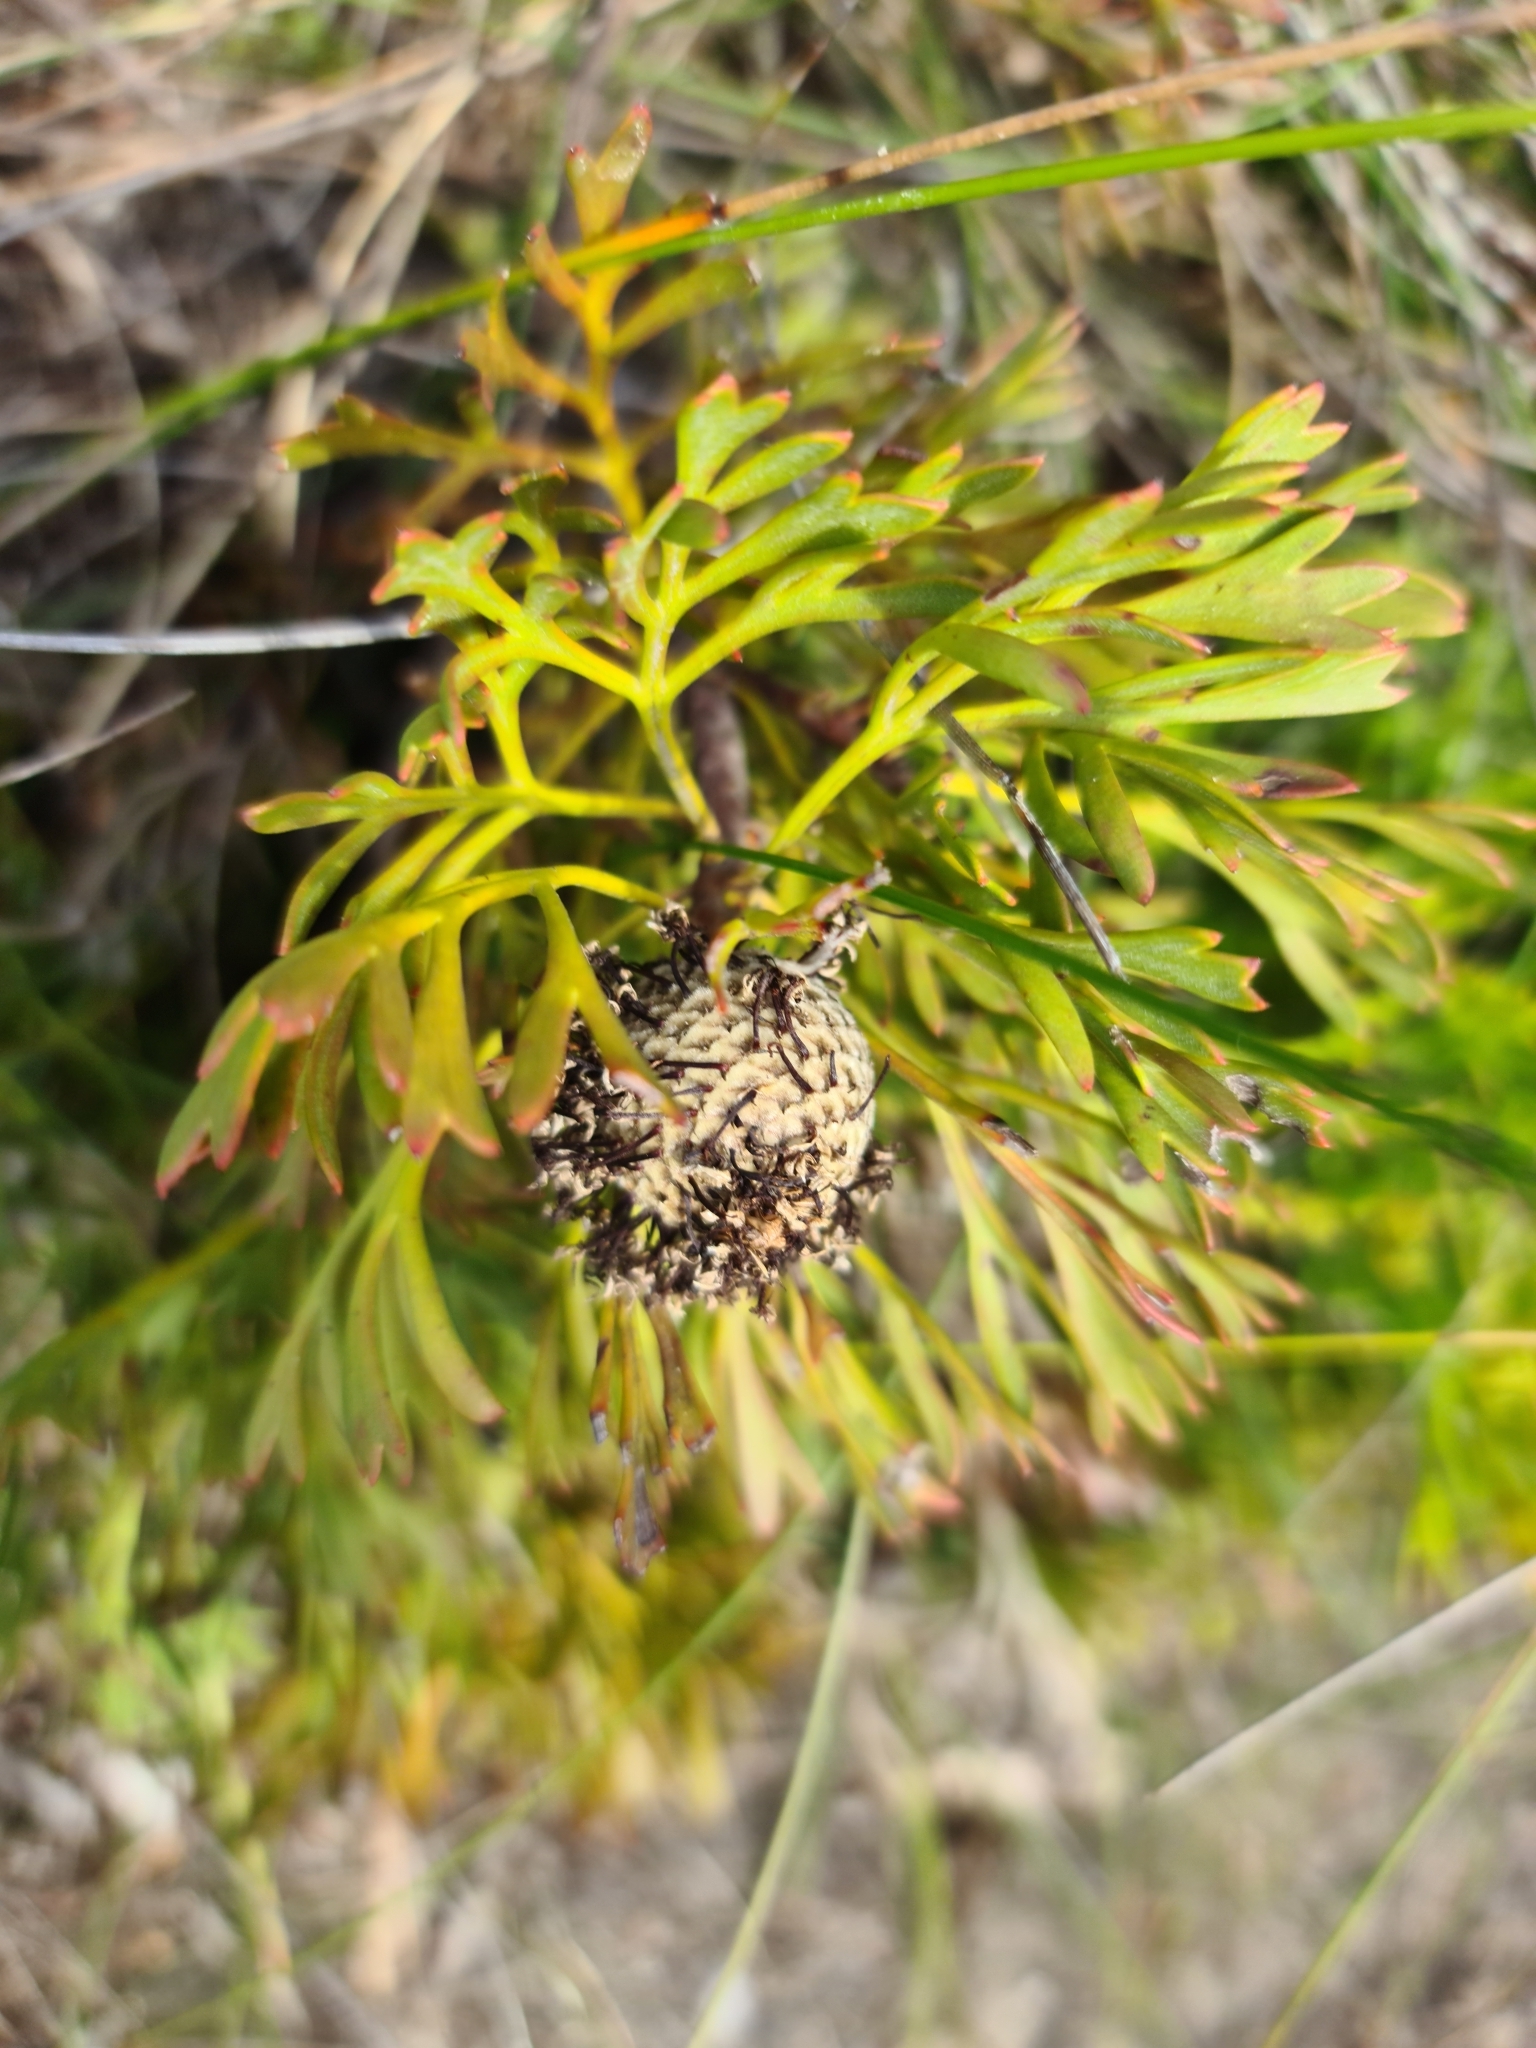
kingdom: Plantae
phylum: Tracheophyta
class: Magnoliopsida
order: Proteales
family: Proteaceae
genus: Isopogon
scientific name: Isopogon anemonifolius
